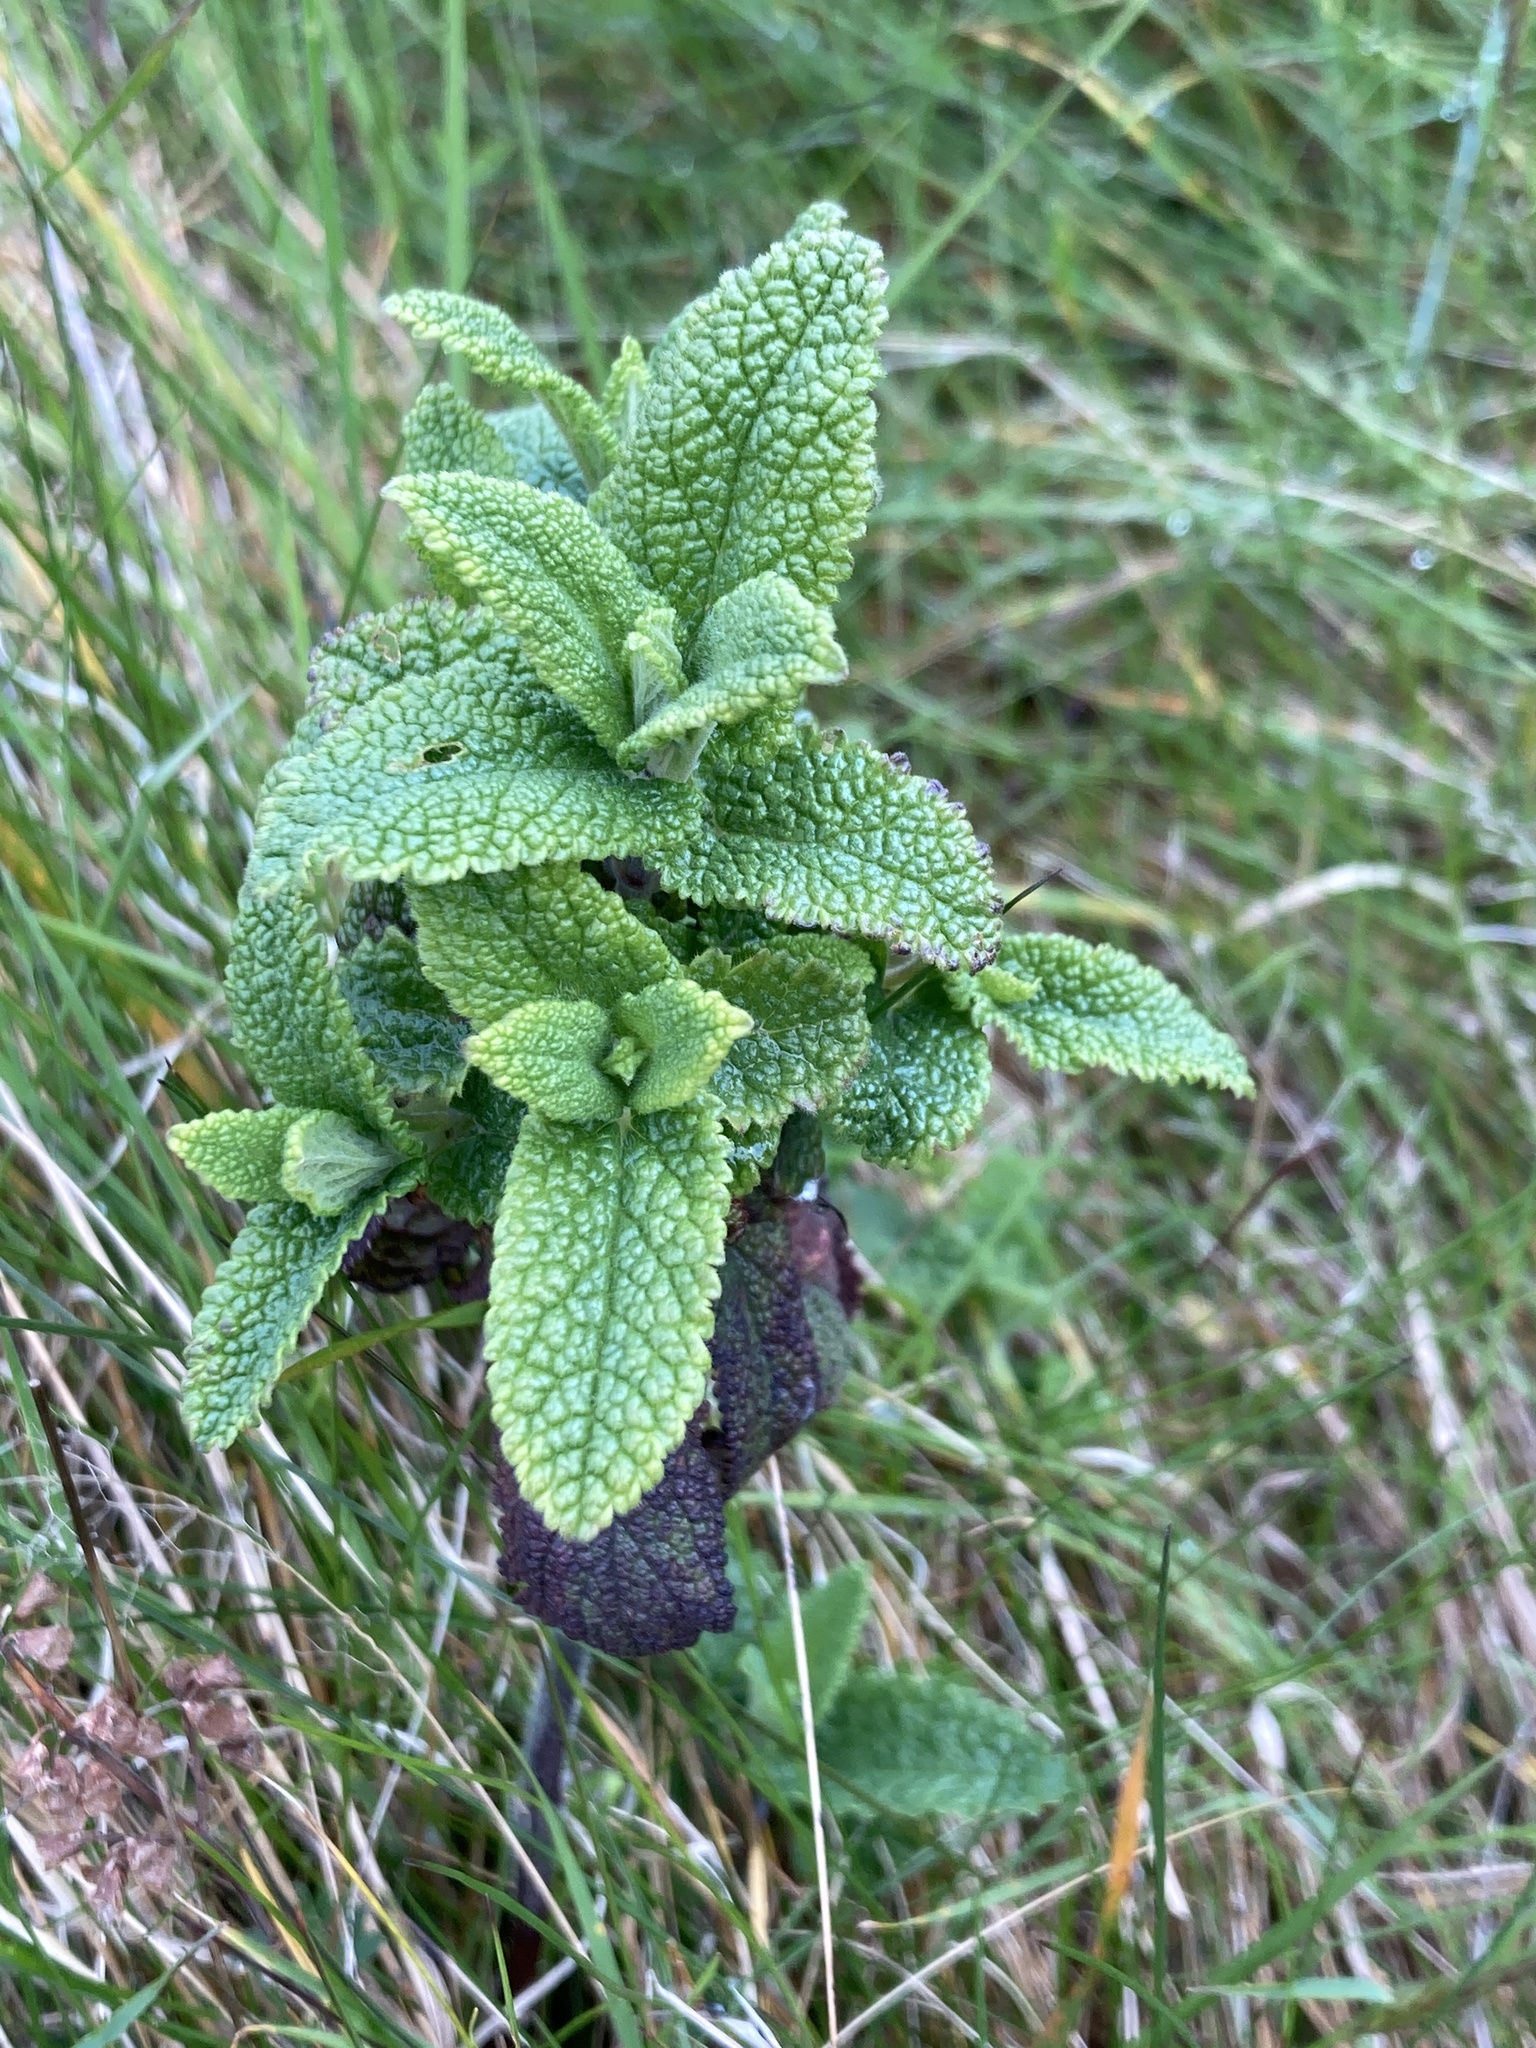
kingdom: Plantae
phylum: Tracheophyta
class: Magnoliopsida
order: Lamiales
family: Lamiaceae
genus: Teucrium
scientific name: Teucrium scorodonia
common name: Woodland germander
